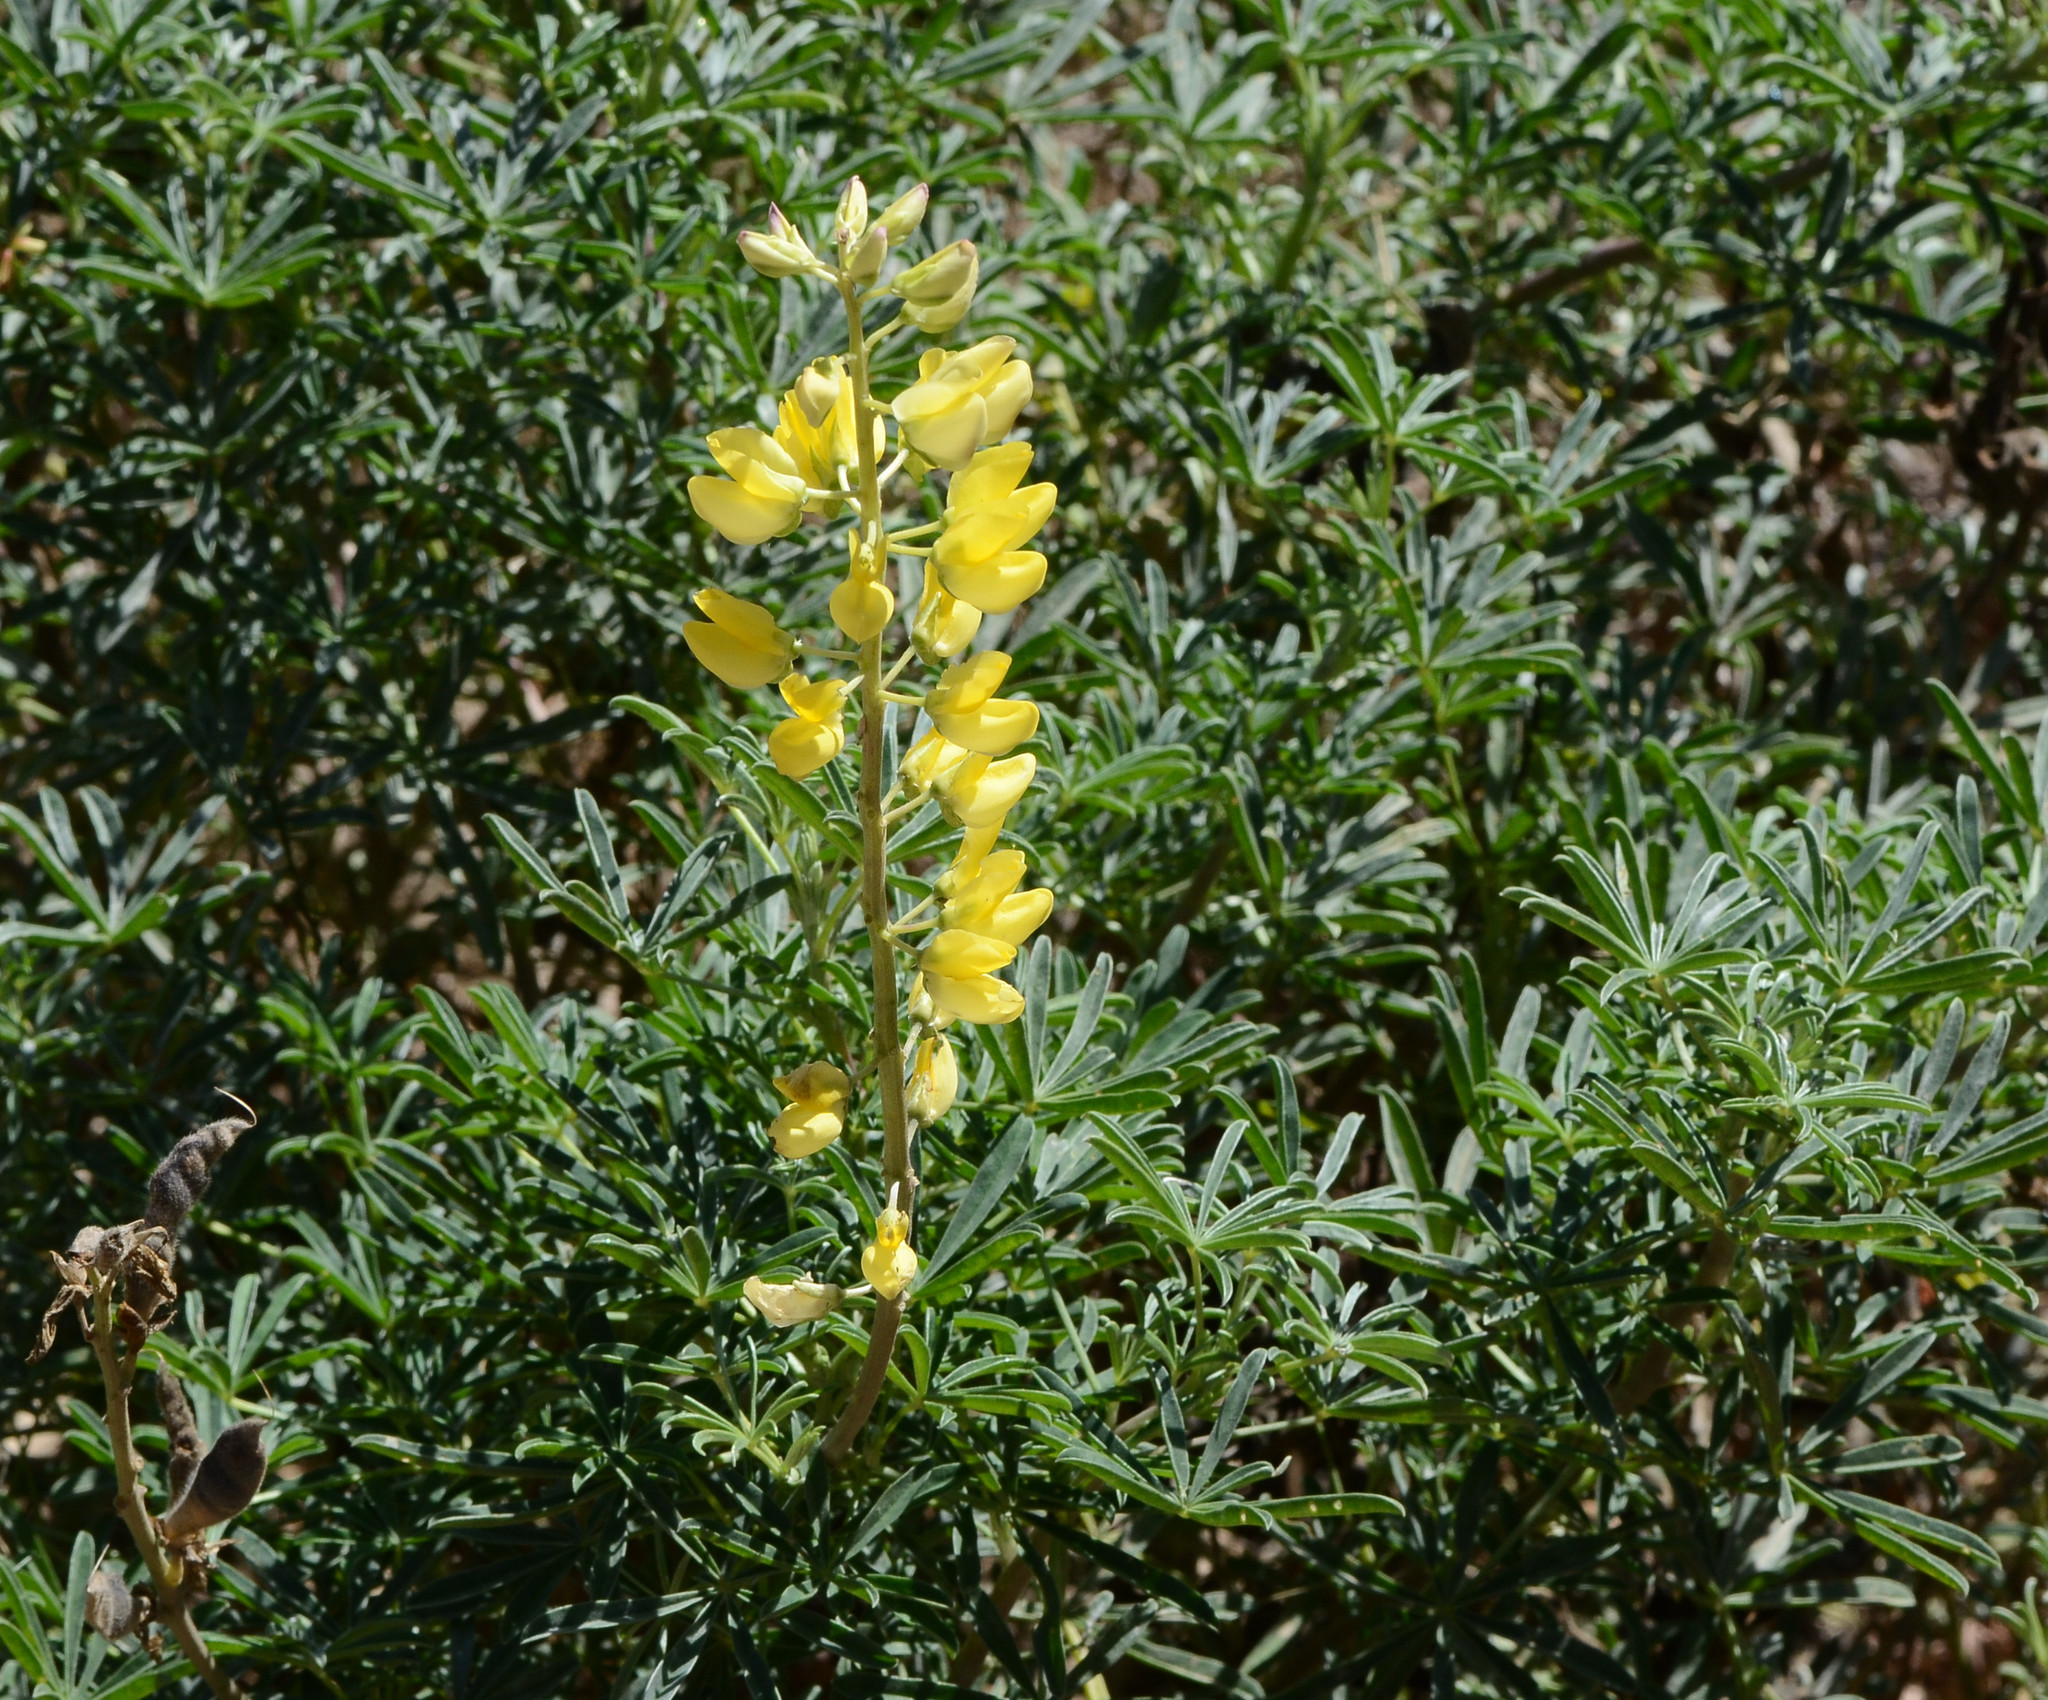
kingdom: Plantae
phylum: Tracheophyta
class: Magnoliopsida
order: Fabales
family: Fabaceae
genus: Lupinus
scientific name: Lupinus arboreus
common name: Yellow bush lupine
